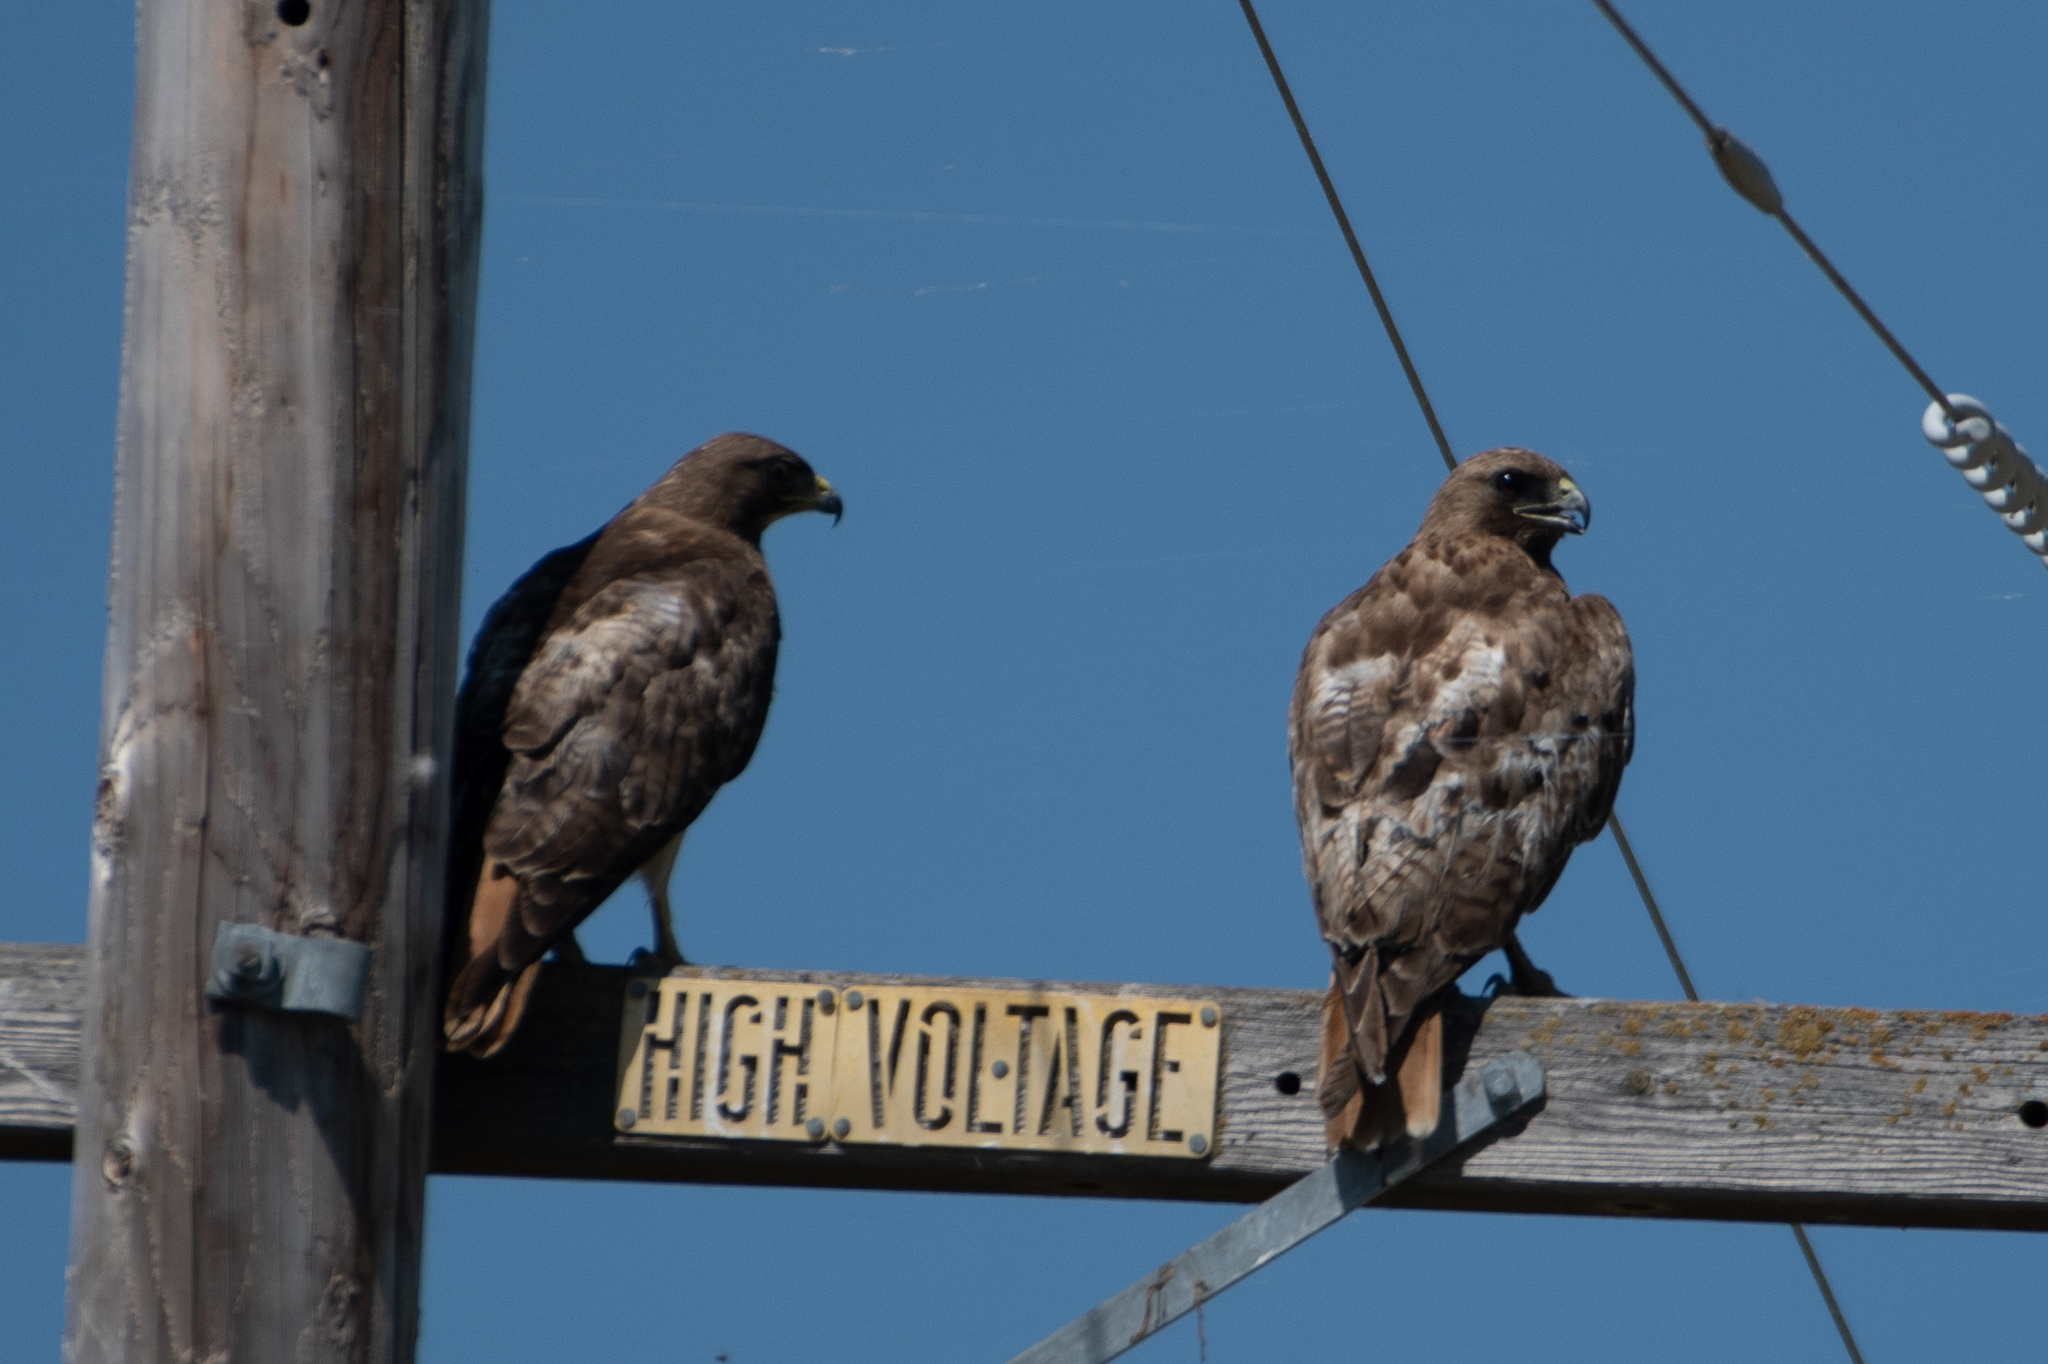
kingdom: Animalia
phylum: Chordata
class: Aves
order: Accipitriformes
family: Accipitridae
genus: Buteo
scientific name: Buteo jamaicensis
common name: Red-tailed hawk
